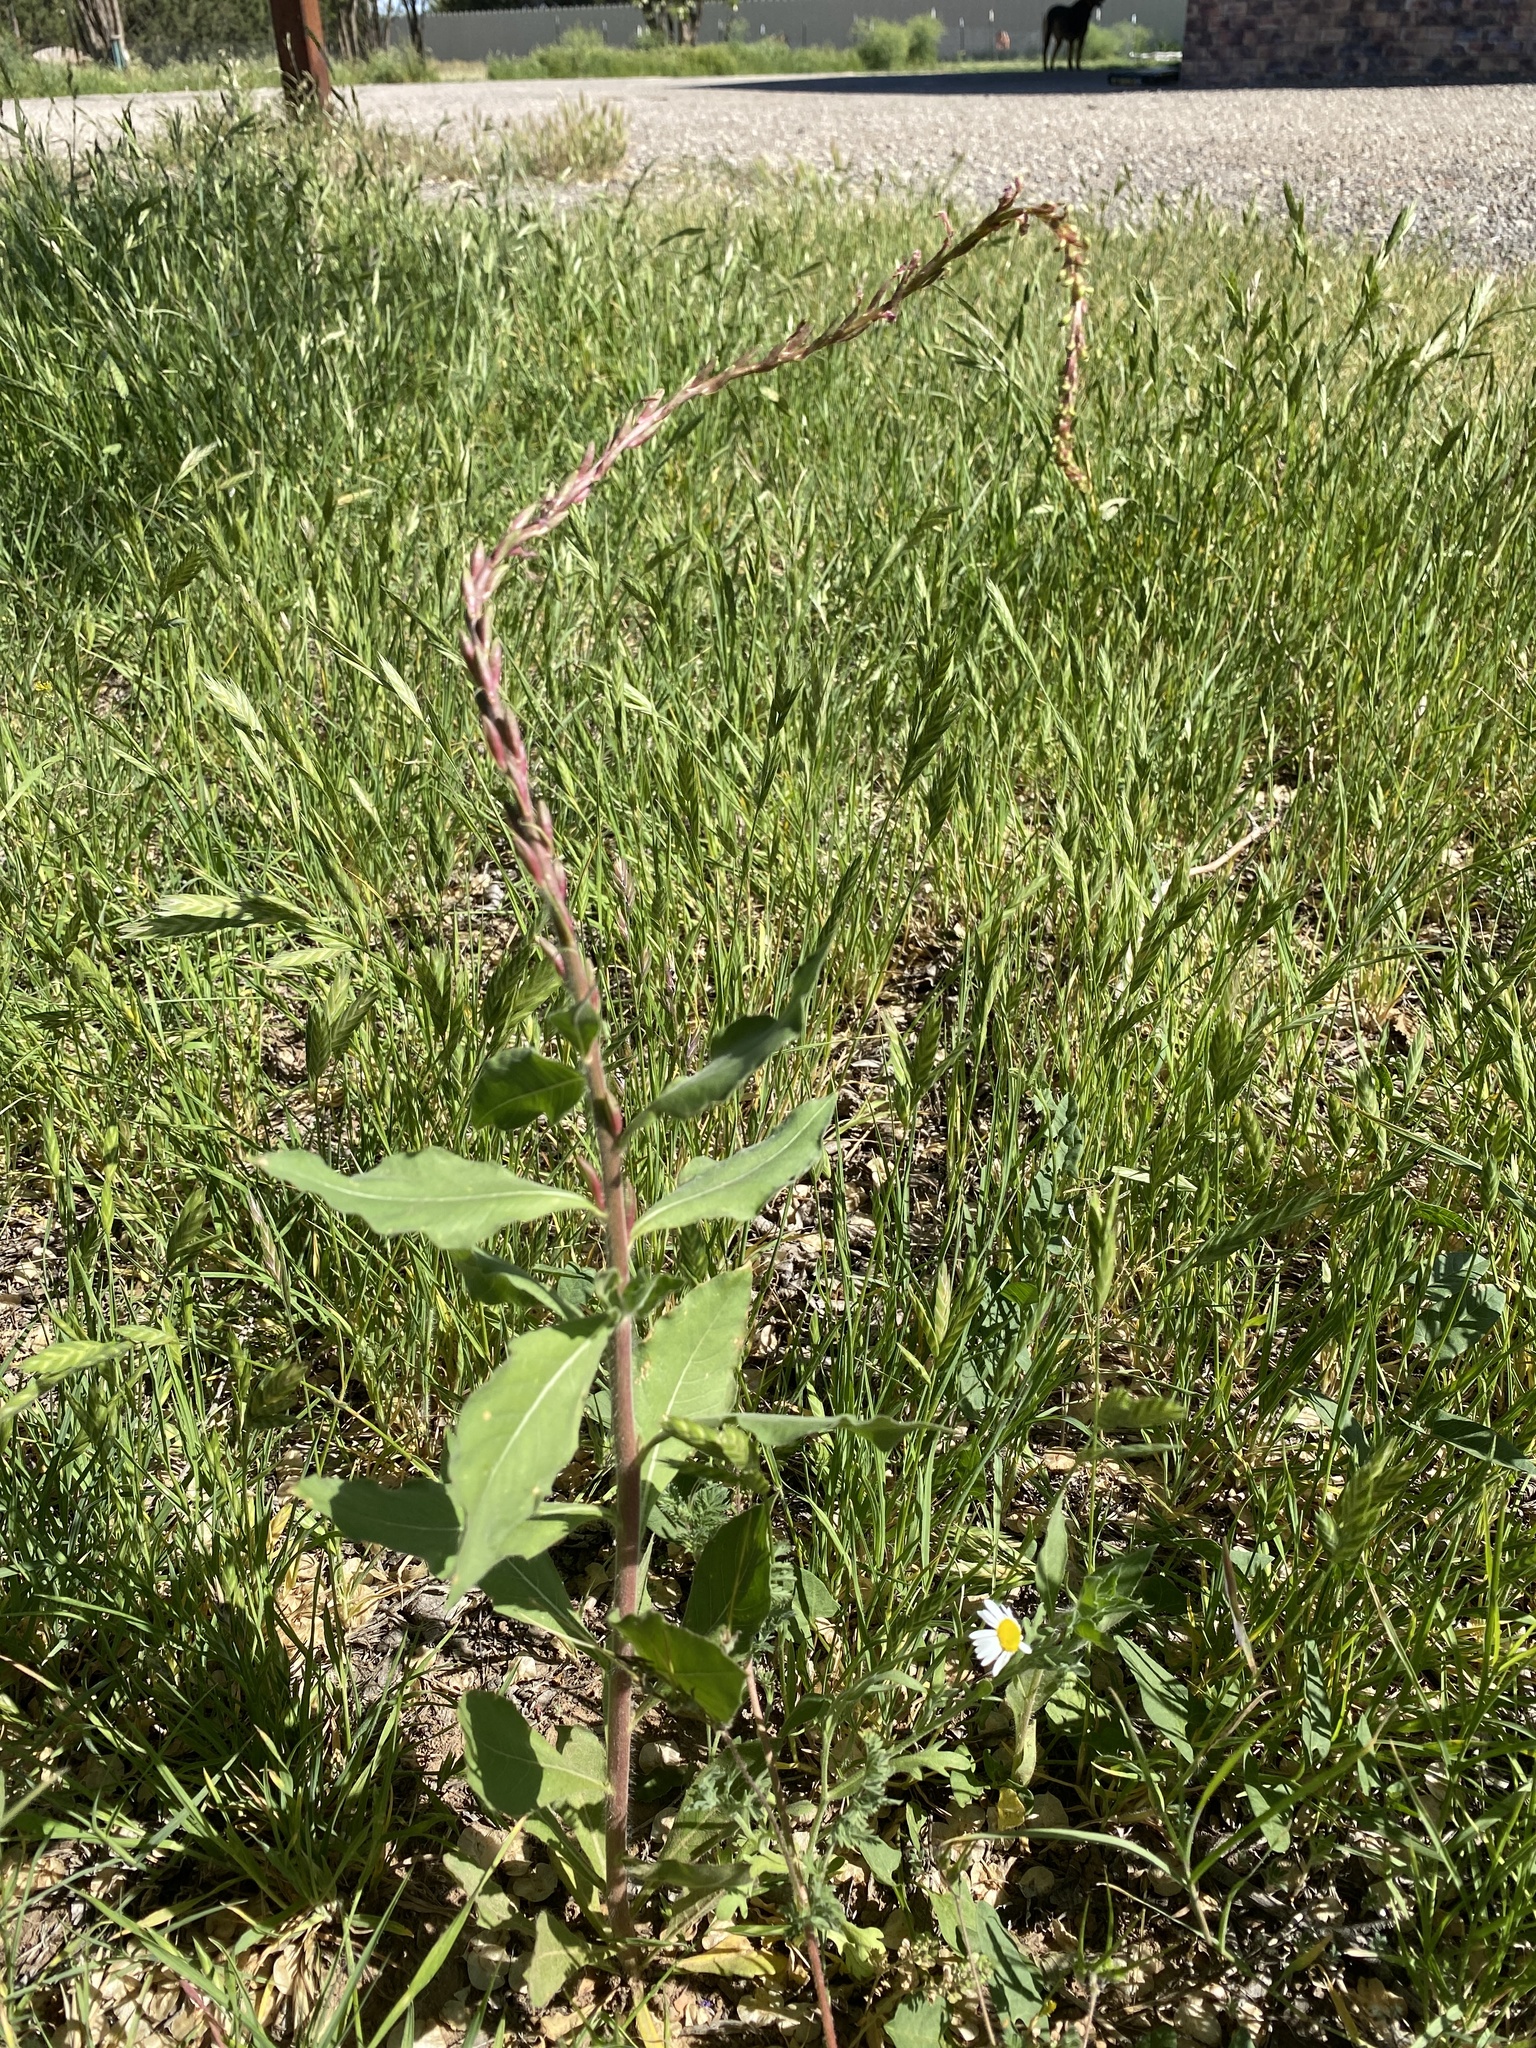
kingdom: Plantae
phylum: Tracheophyta
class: Magnoliopsida
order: Myrtales
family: Onagraceae
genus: Oenothera
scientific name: Oenothera curtiflora
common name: Velvetweed
